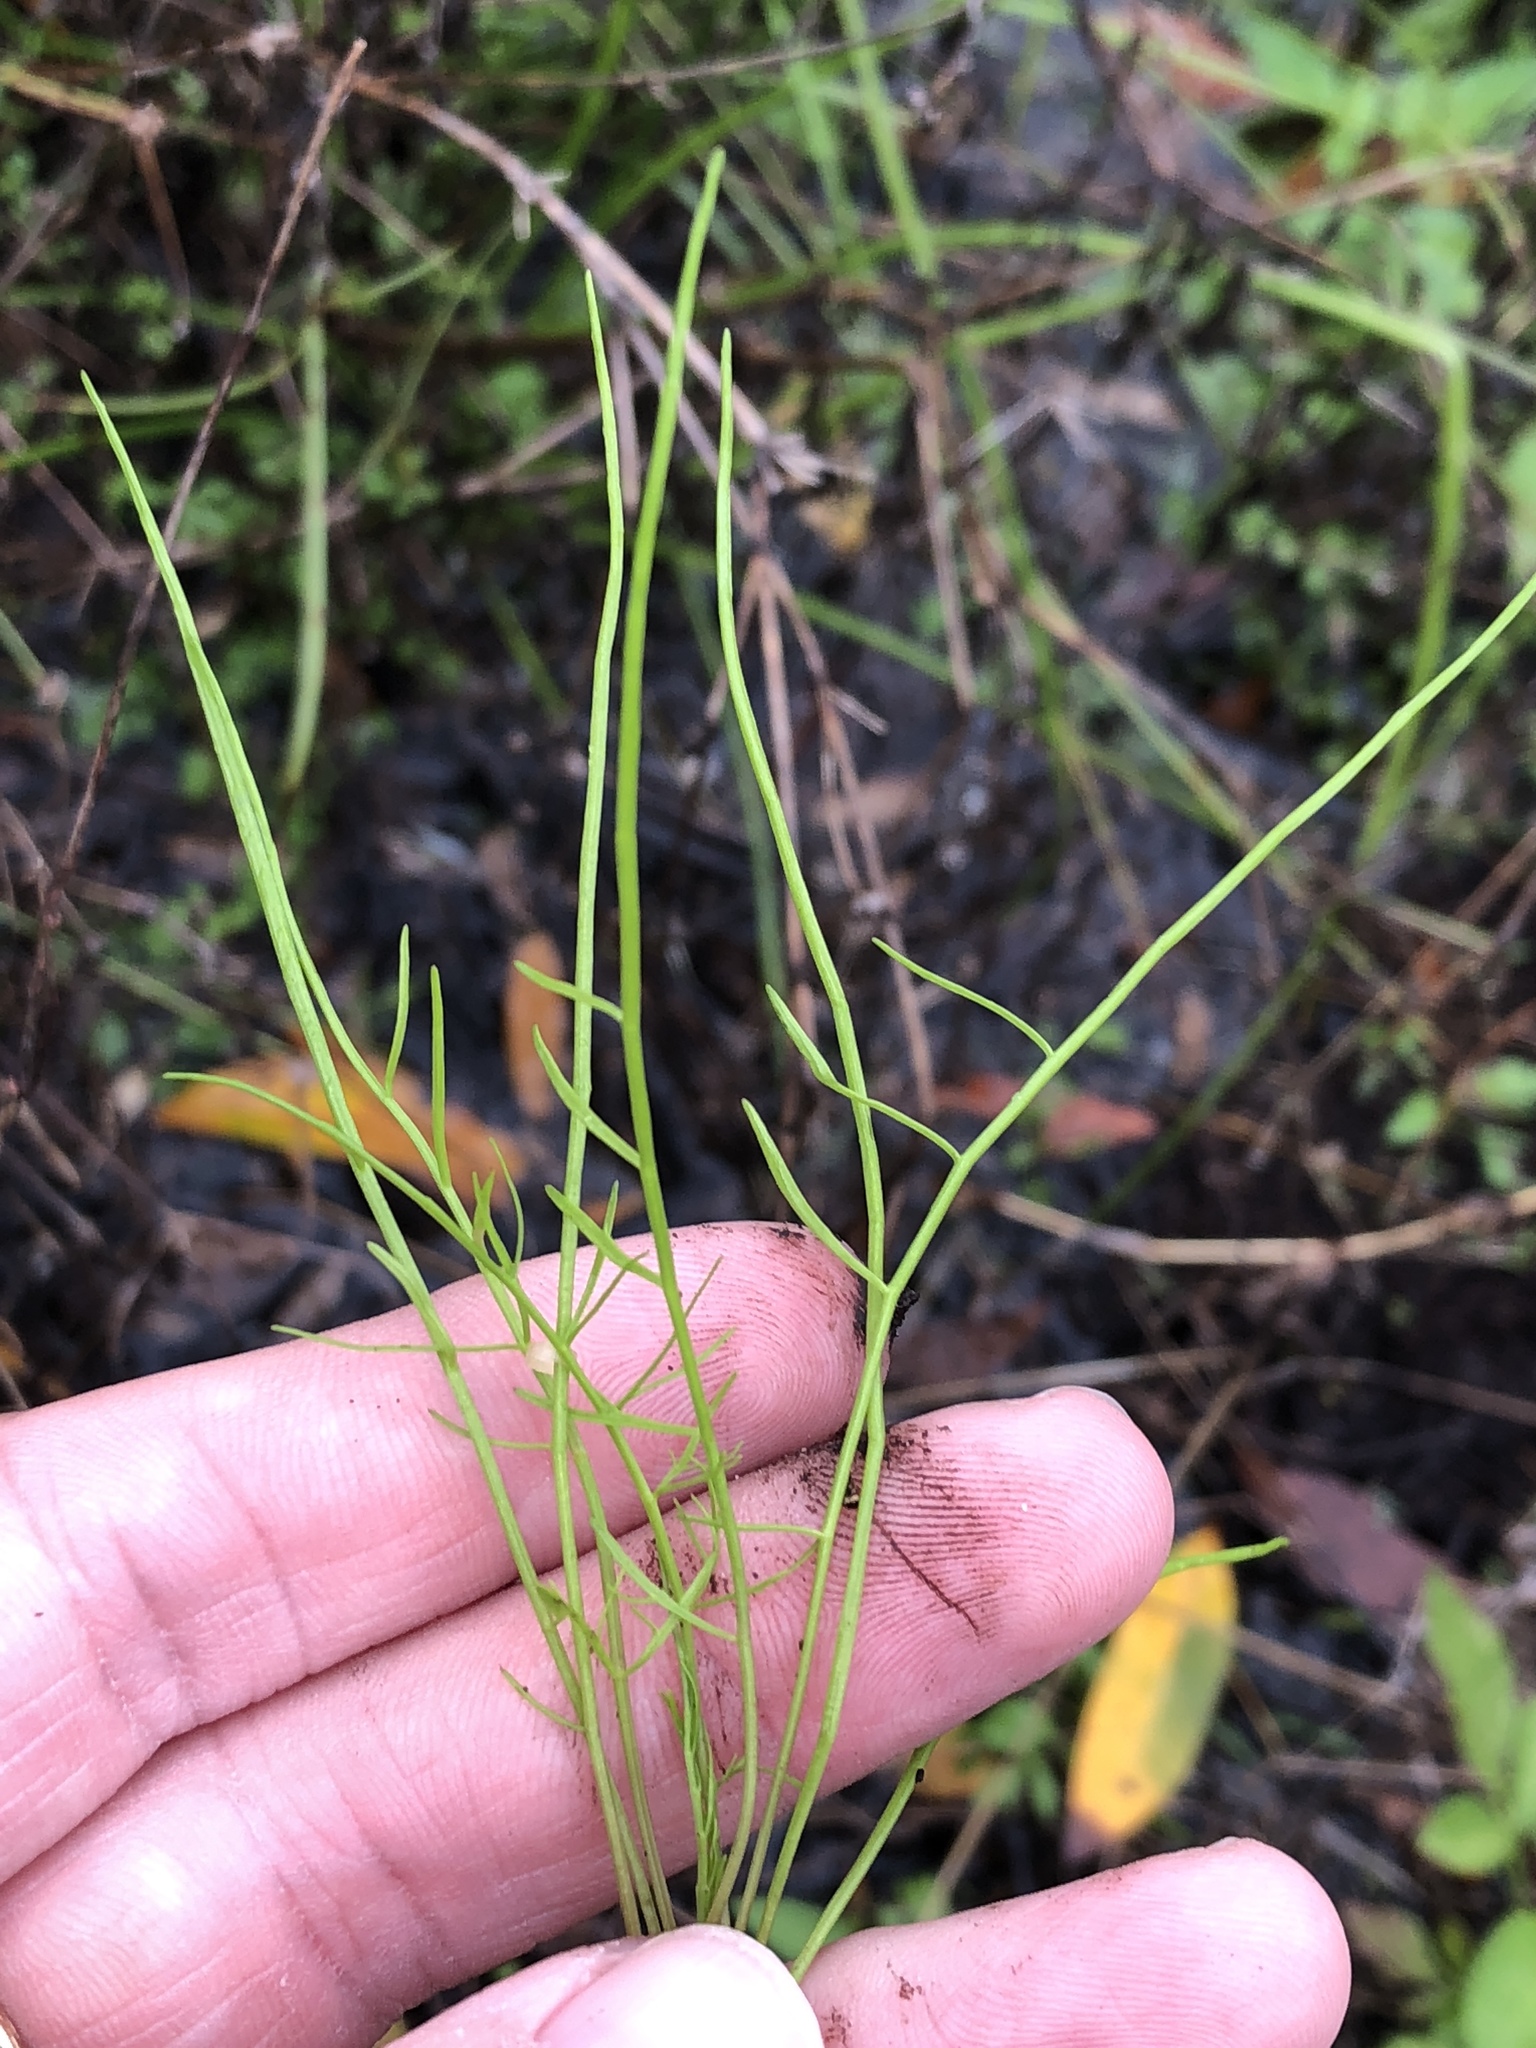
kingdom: Plantae
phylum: Tracheophyta
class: Magnoliopsida
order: Apiales
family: Apiaceae
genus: Ptilimnium
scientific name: Ptilimnium capillaceum
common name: Herbwilliam
